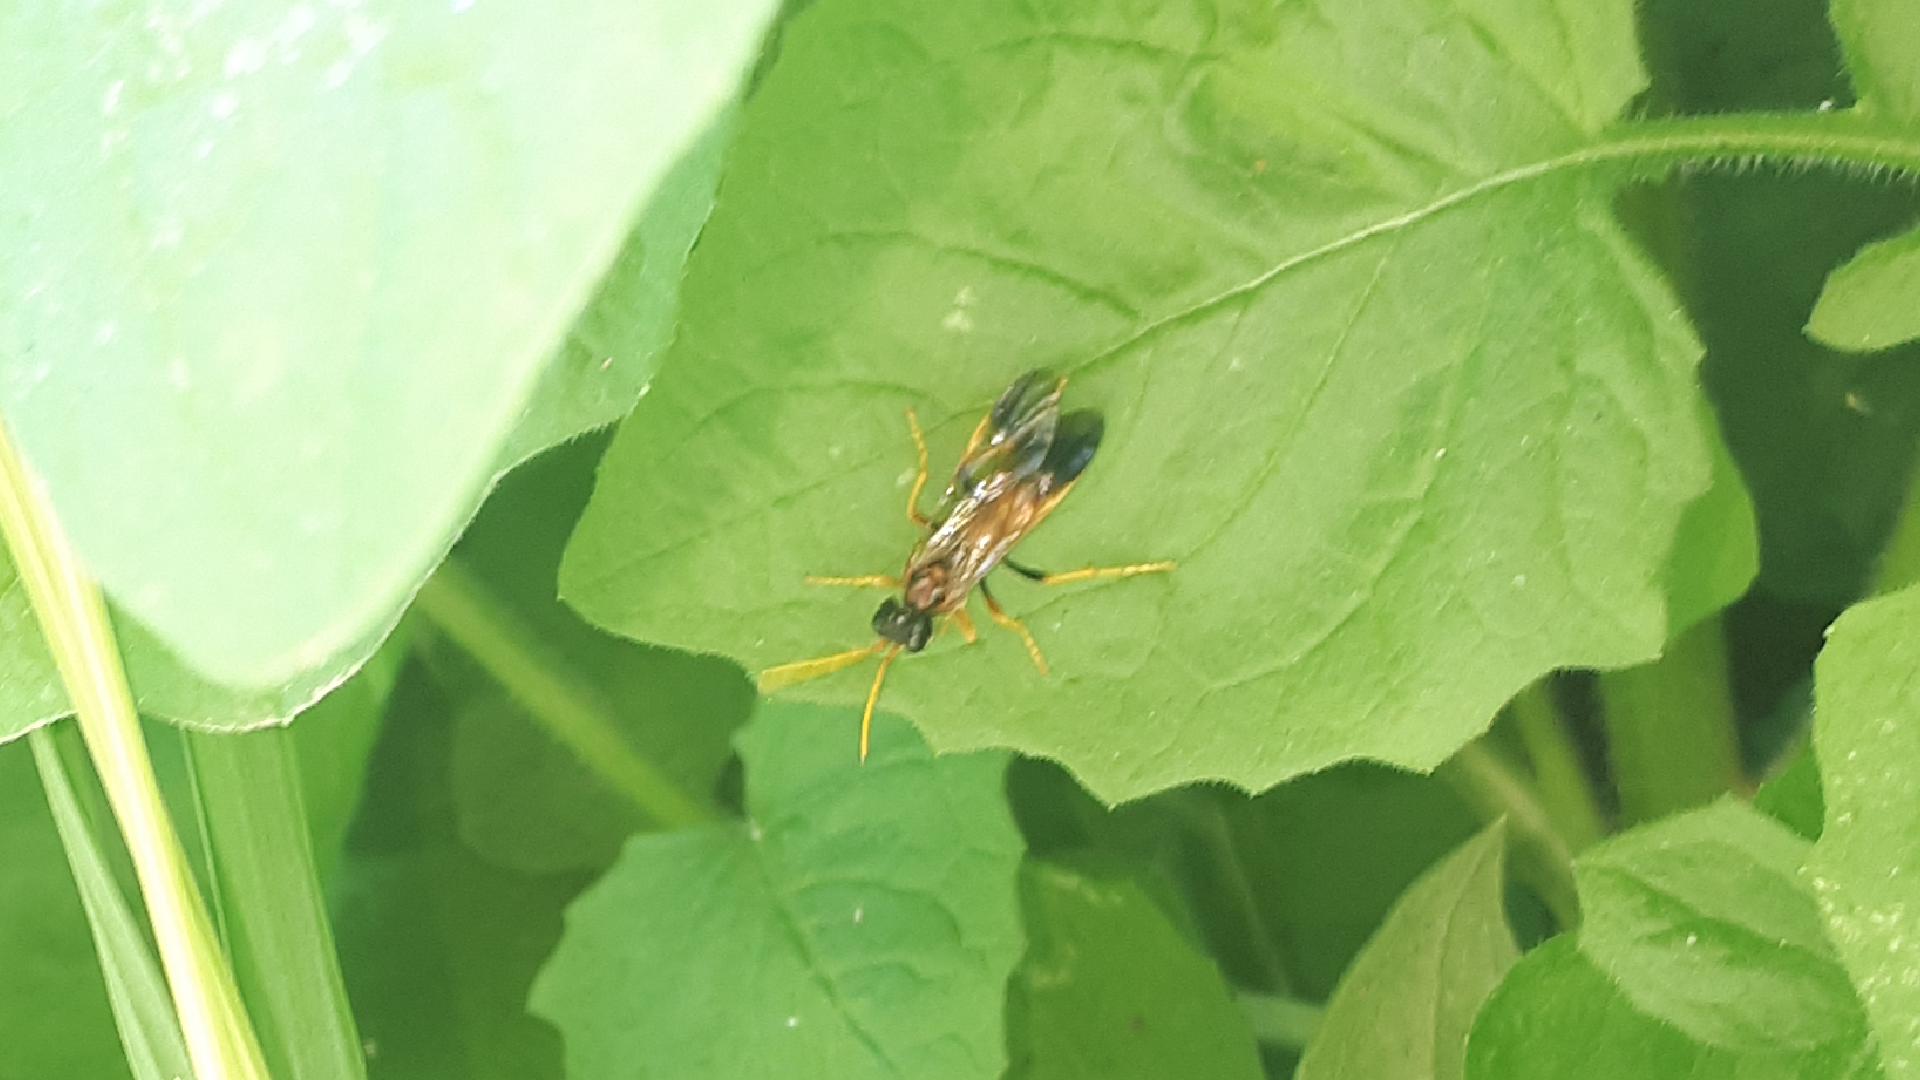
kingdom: Animalia
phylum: Arthropoda
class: Insecta
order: Hymenoptera
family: Tenthredinidae
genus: Tenthredo
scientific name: Tenthredo campestris
